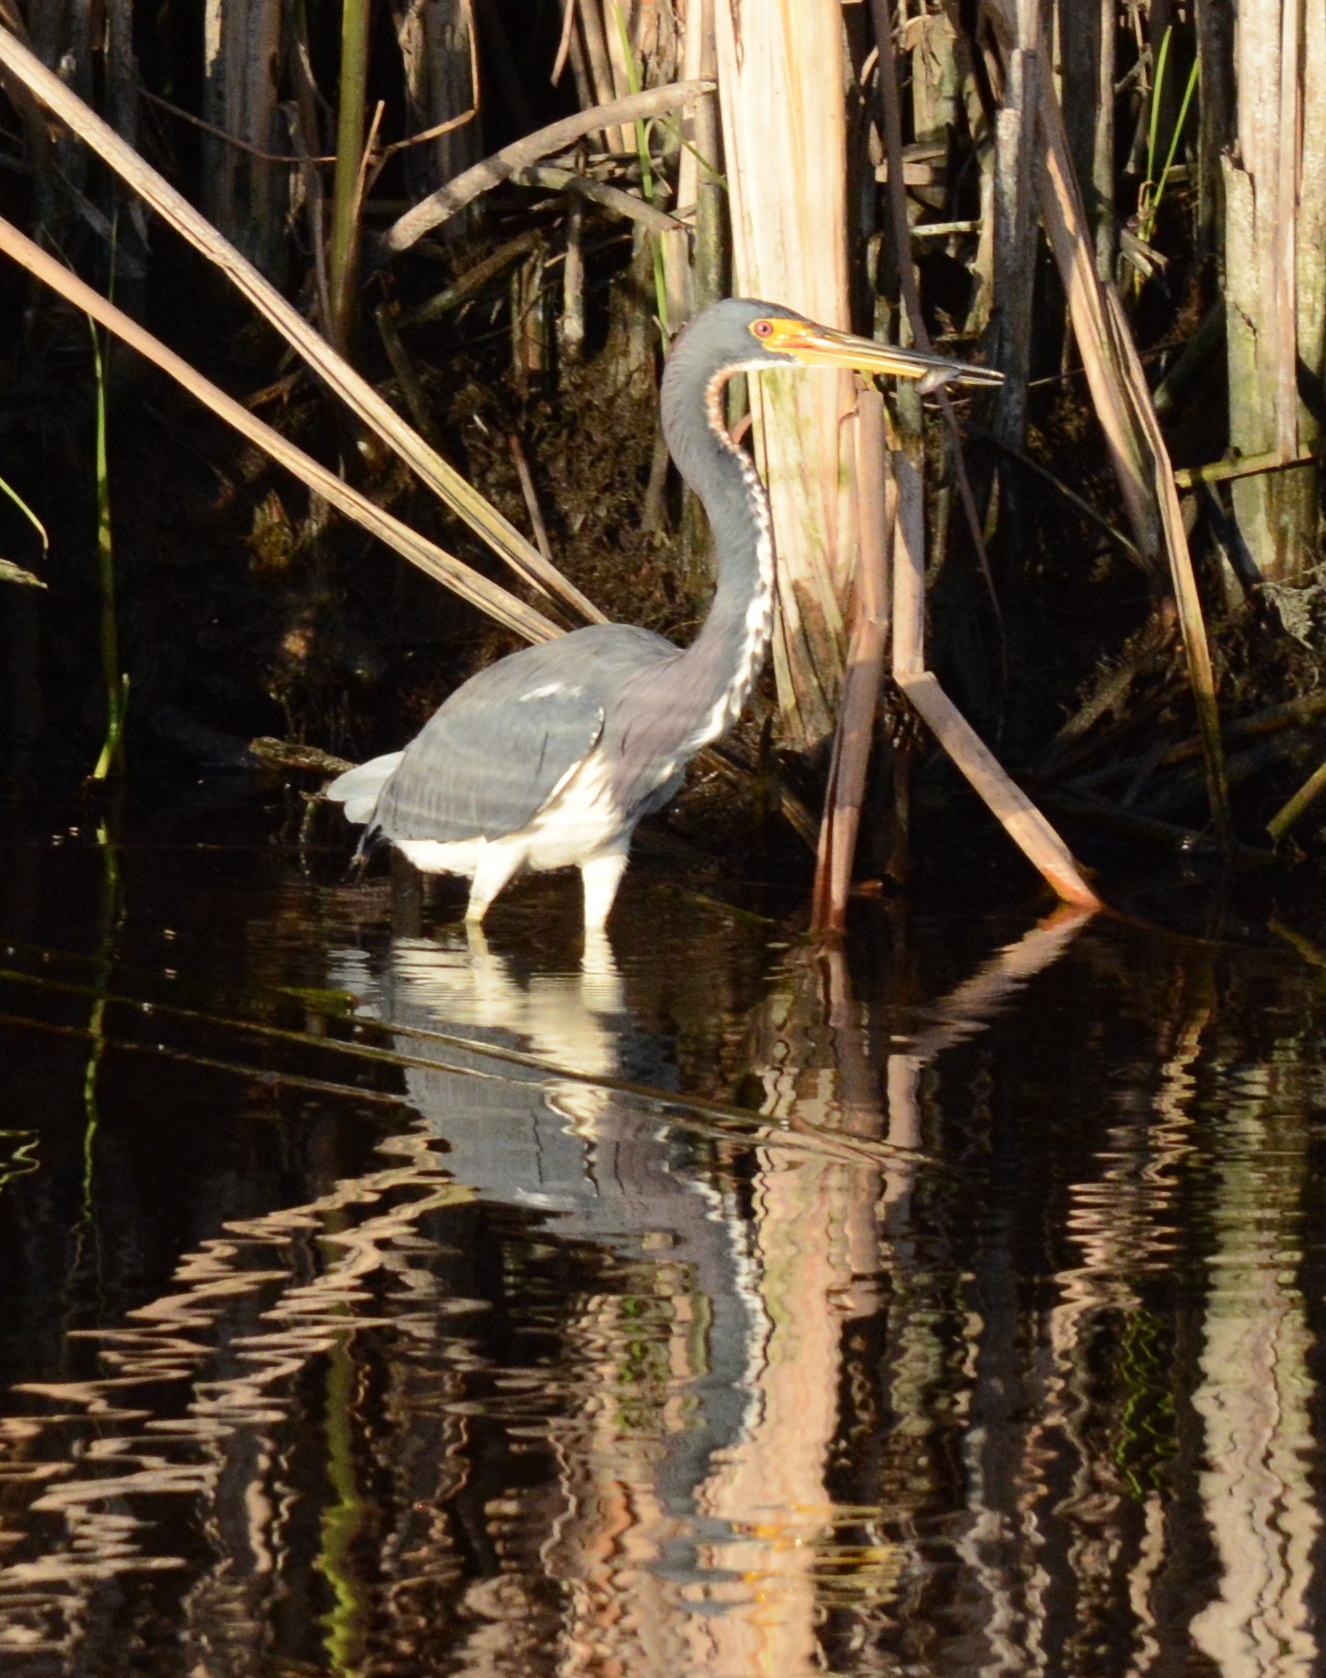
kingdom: Animalia
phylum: Chordata
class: Aves
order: Pelecaniformes
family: Ardeidae
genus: Egretta
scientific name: Egretta tricolor
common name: Tricolored heron
